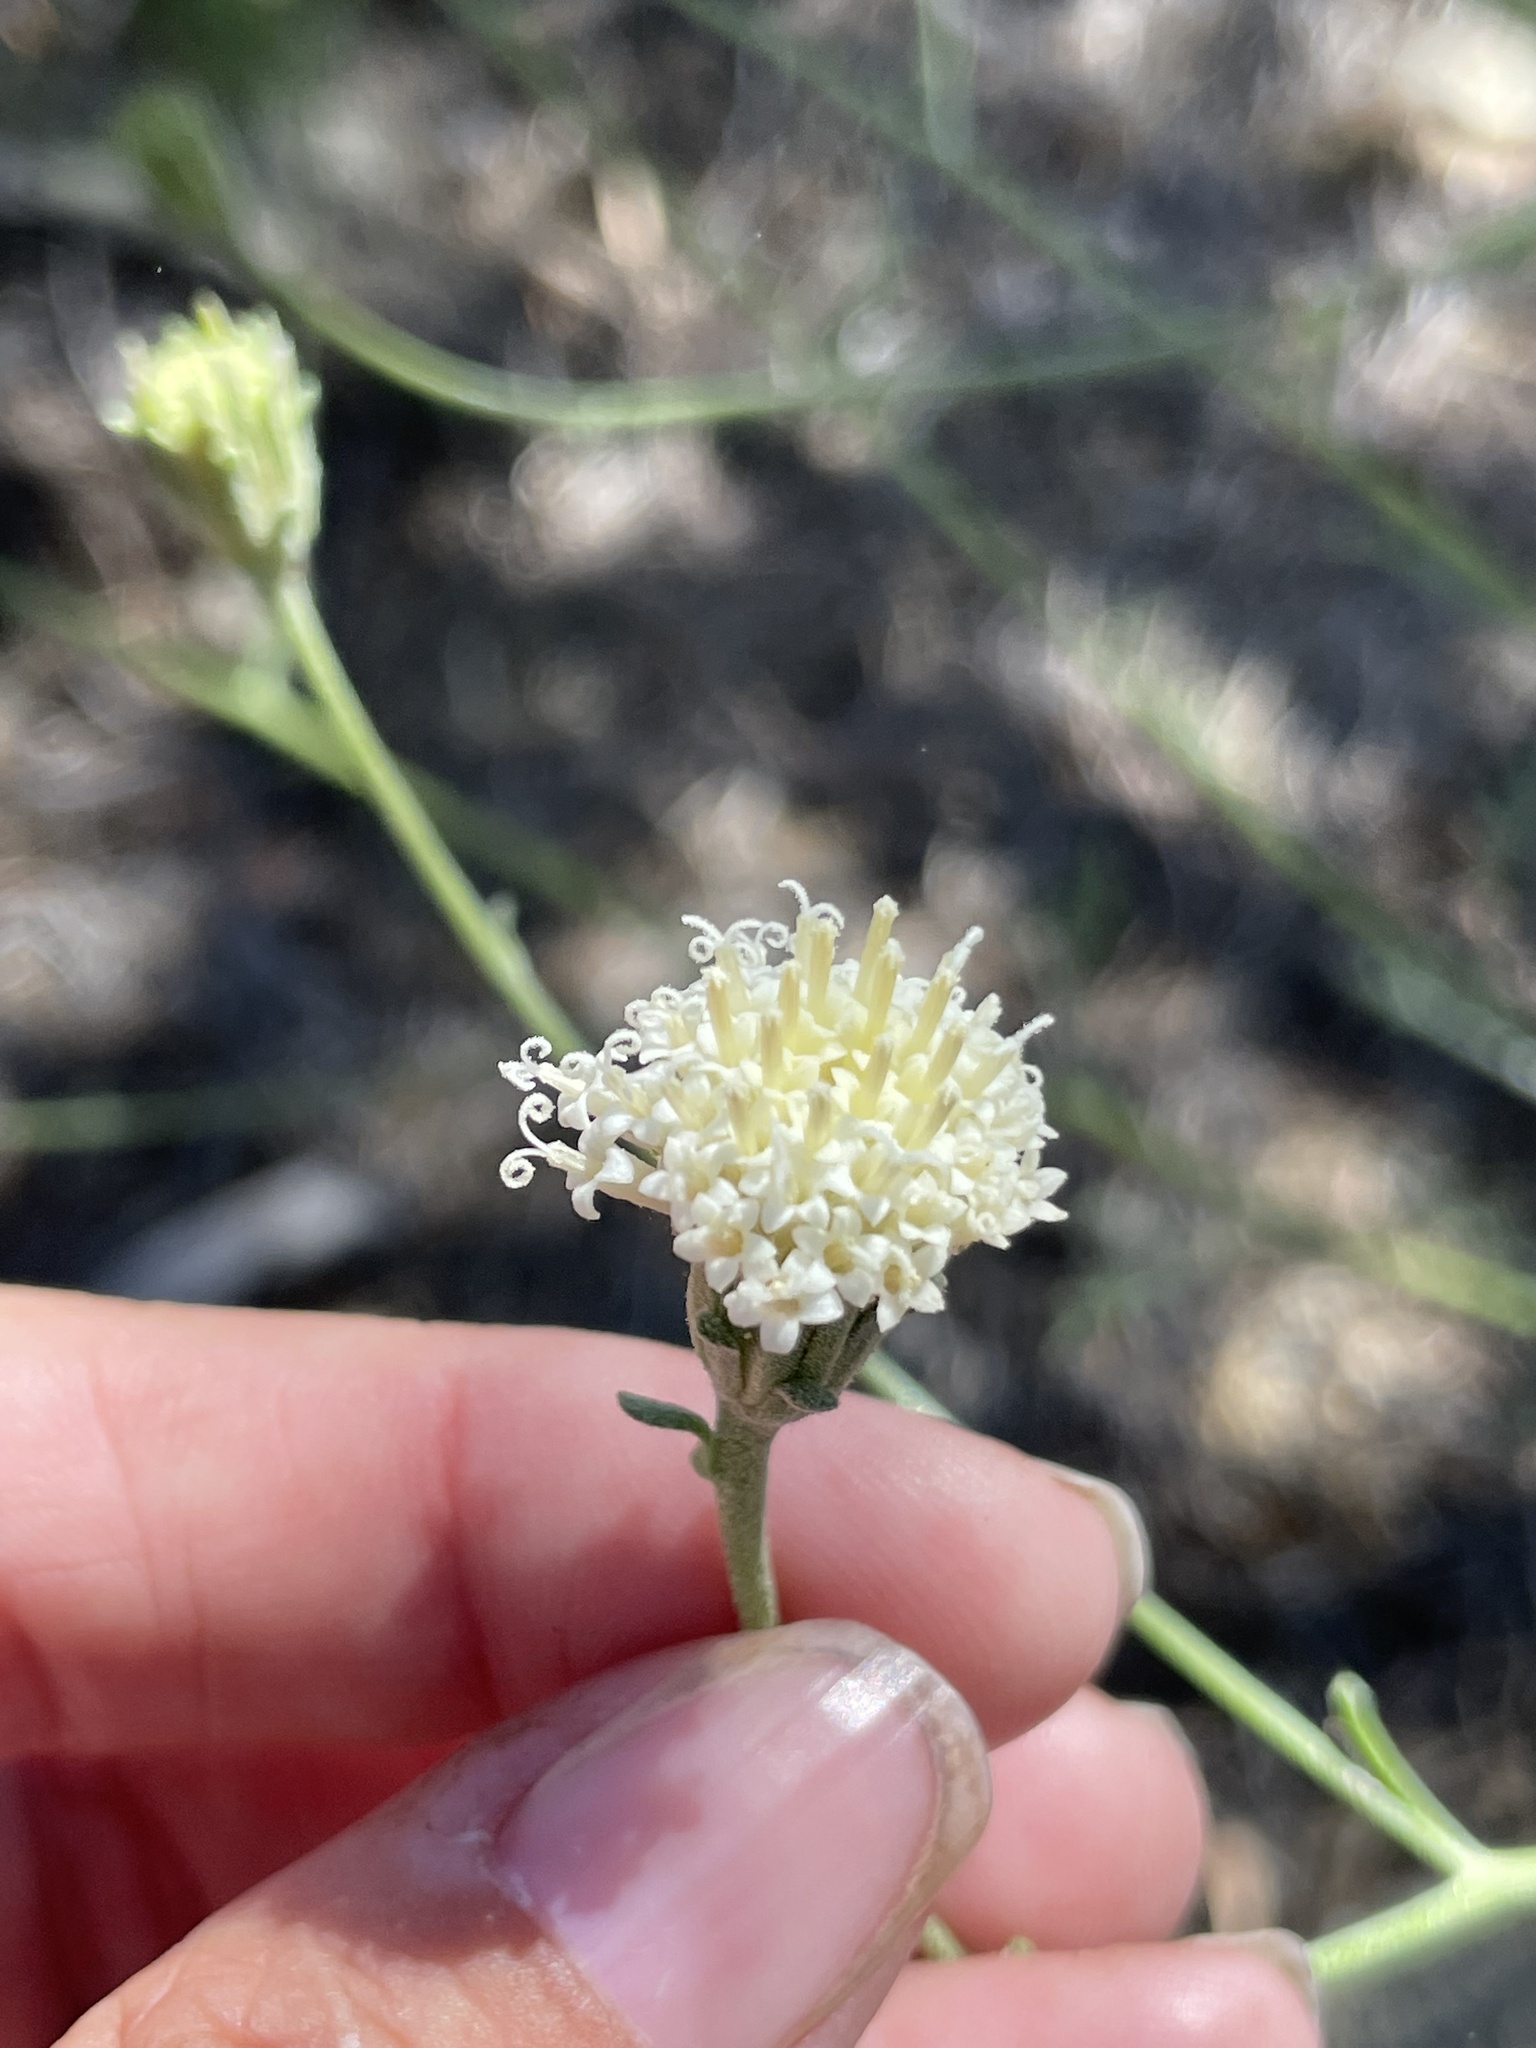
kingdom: Plantae
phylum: Tracheophyta
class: Magnoliopsida
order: Asterales
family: Asteraceae
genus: Chaenactis
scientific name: Chaenactis parishii
